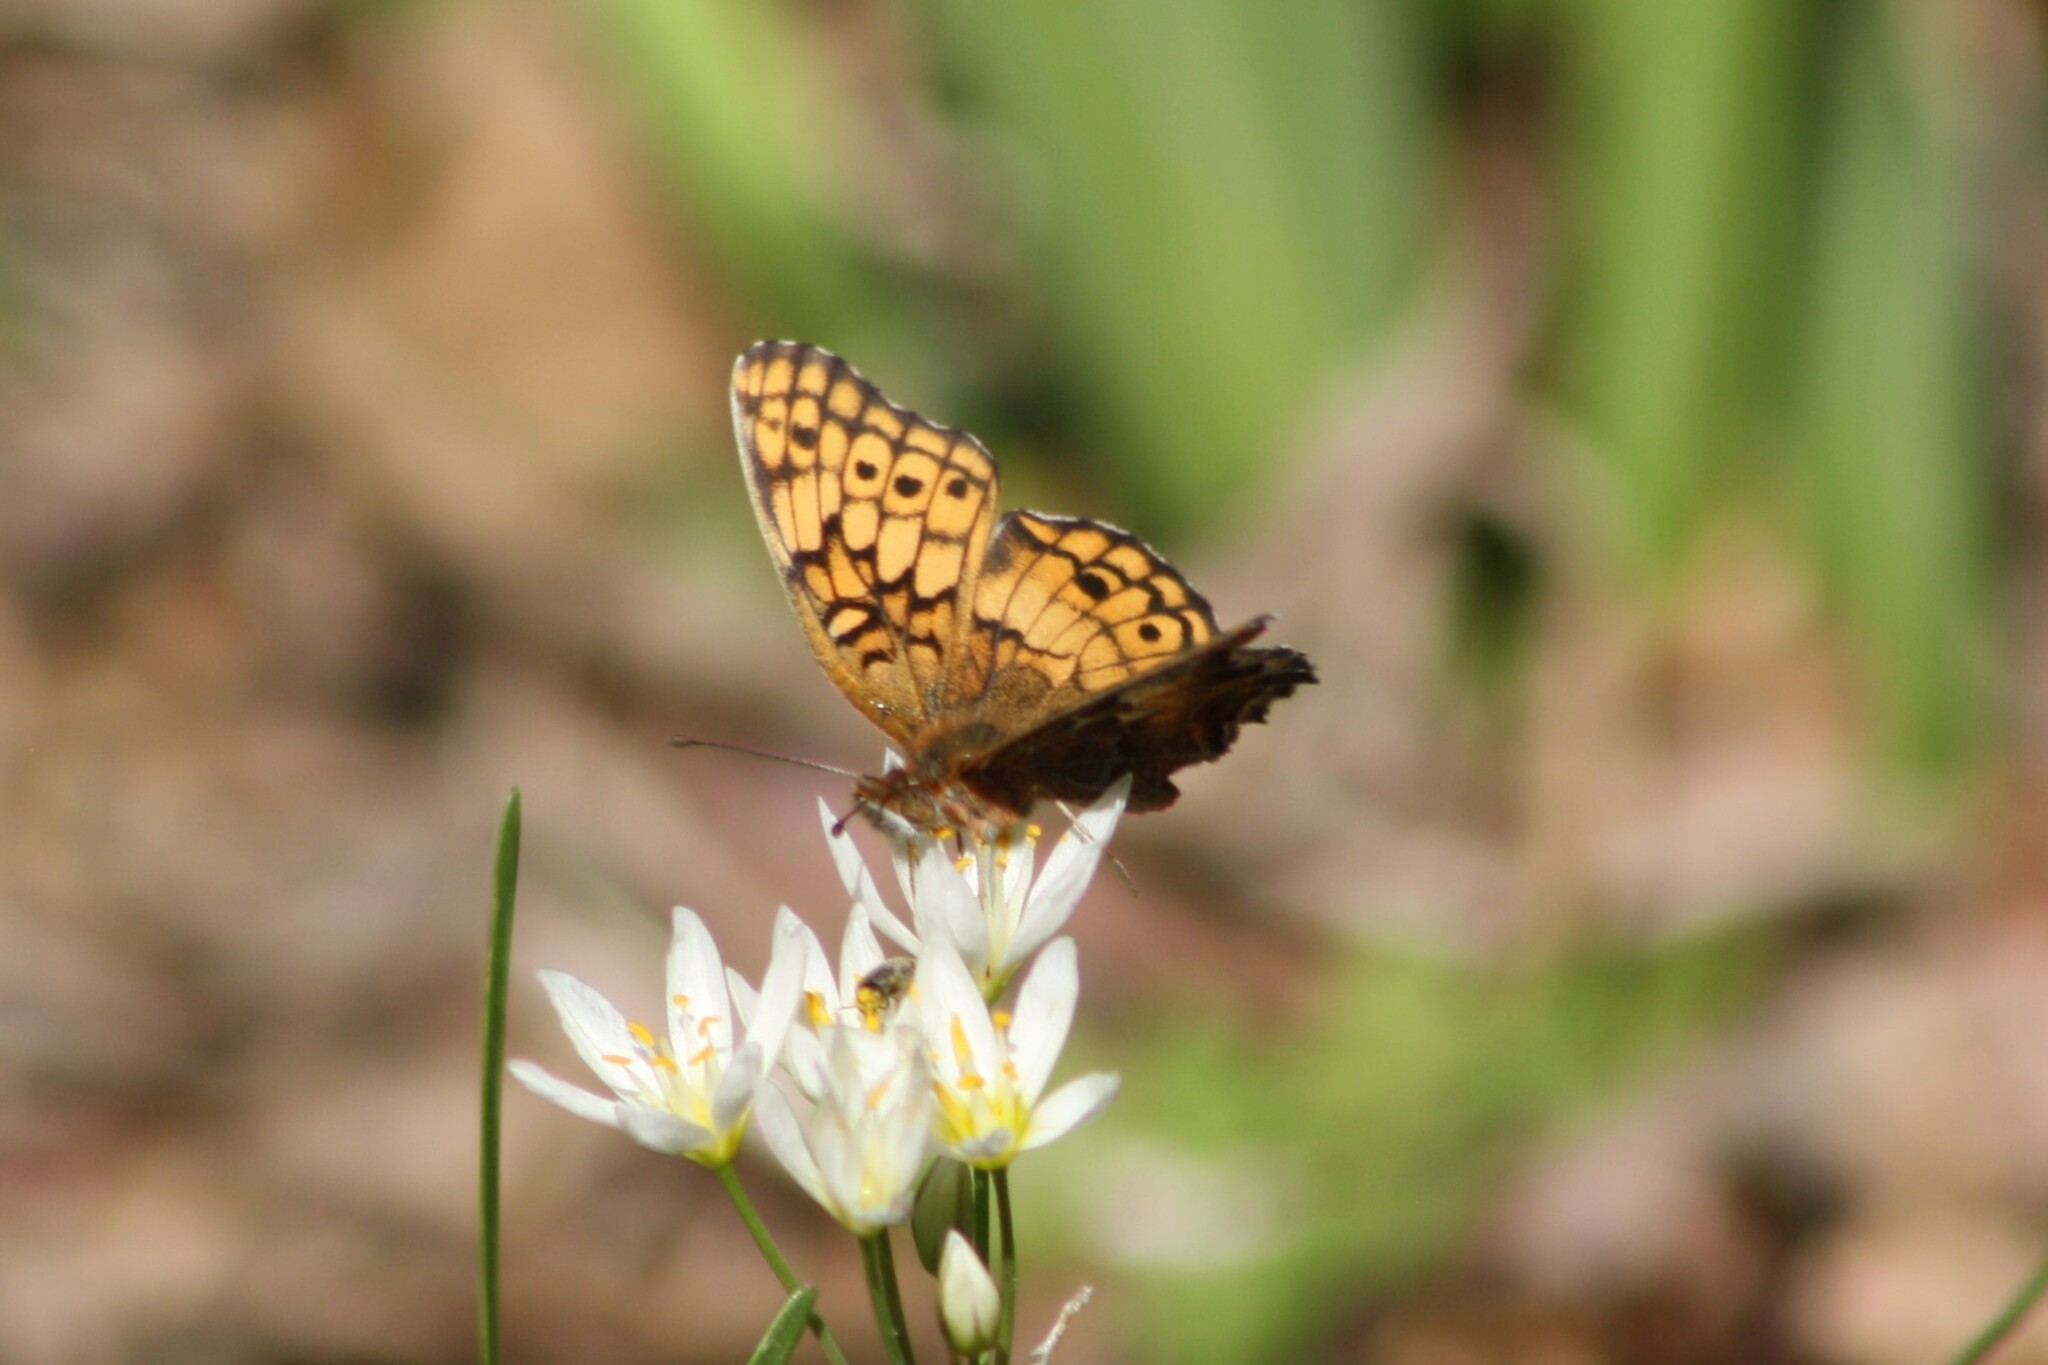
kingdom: Animalia
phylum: Arthropoda
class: Insecta
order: Lepidoptera
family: Nymphalidae
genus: Euptoieta
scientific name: Euptoieta claudia
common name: Variegated fritillary
